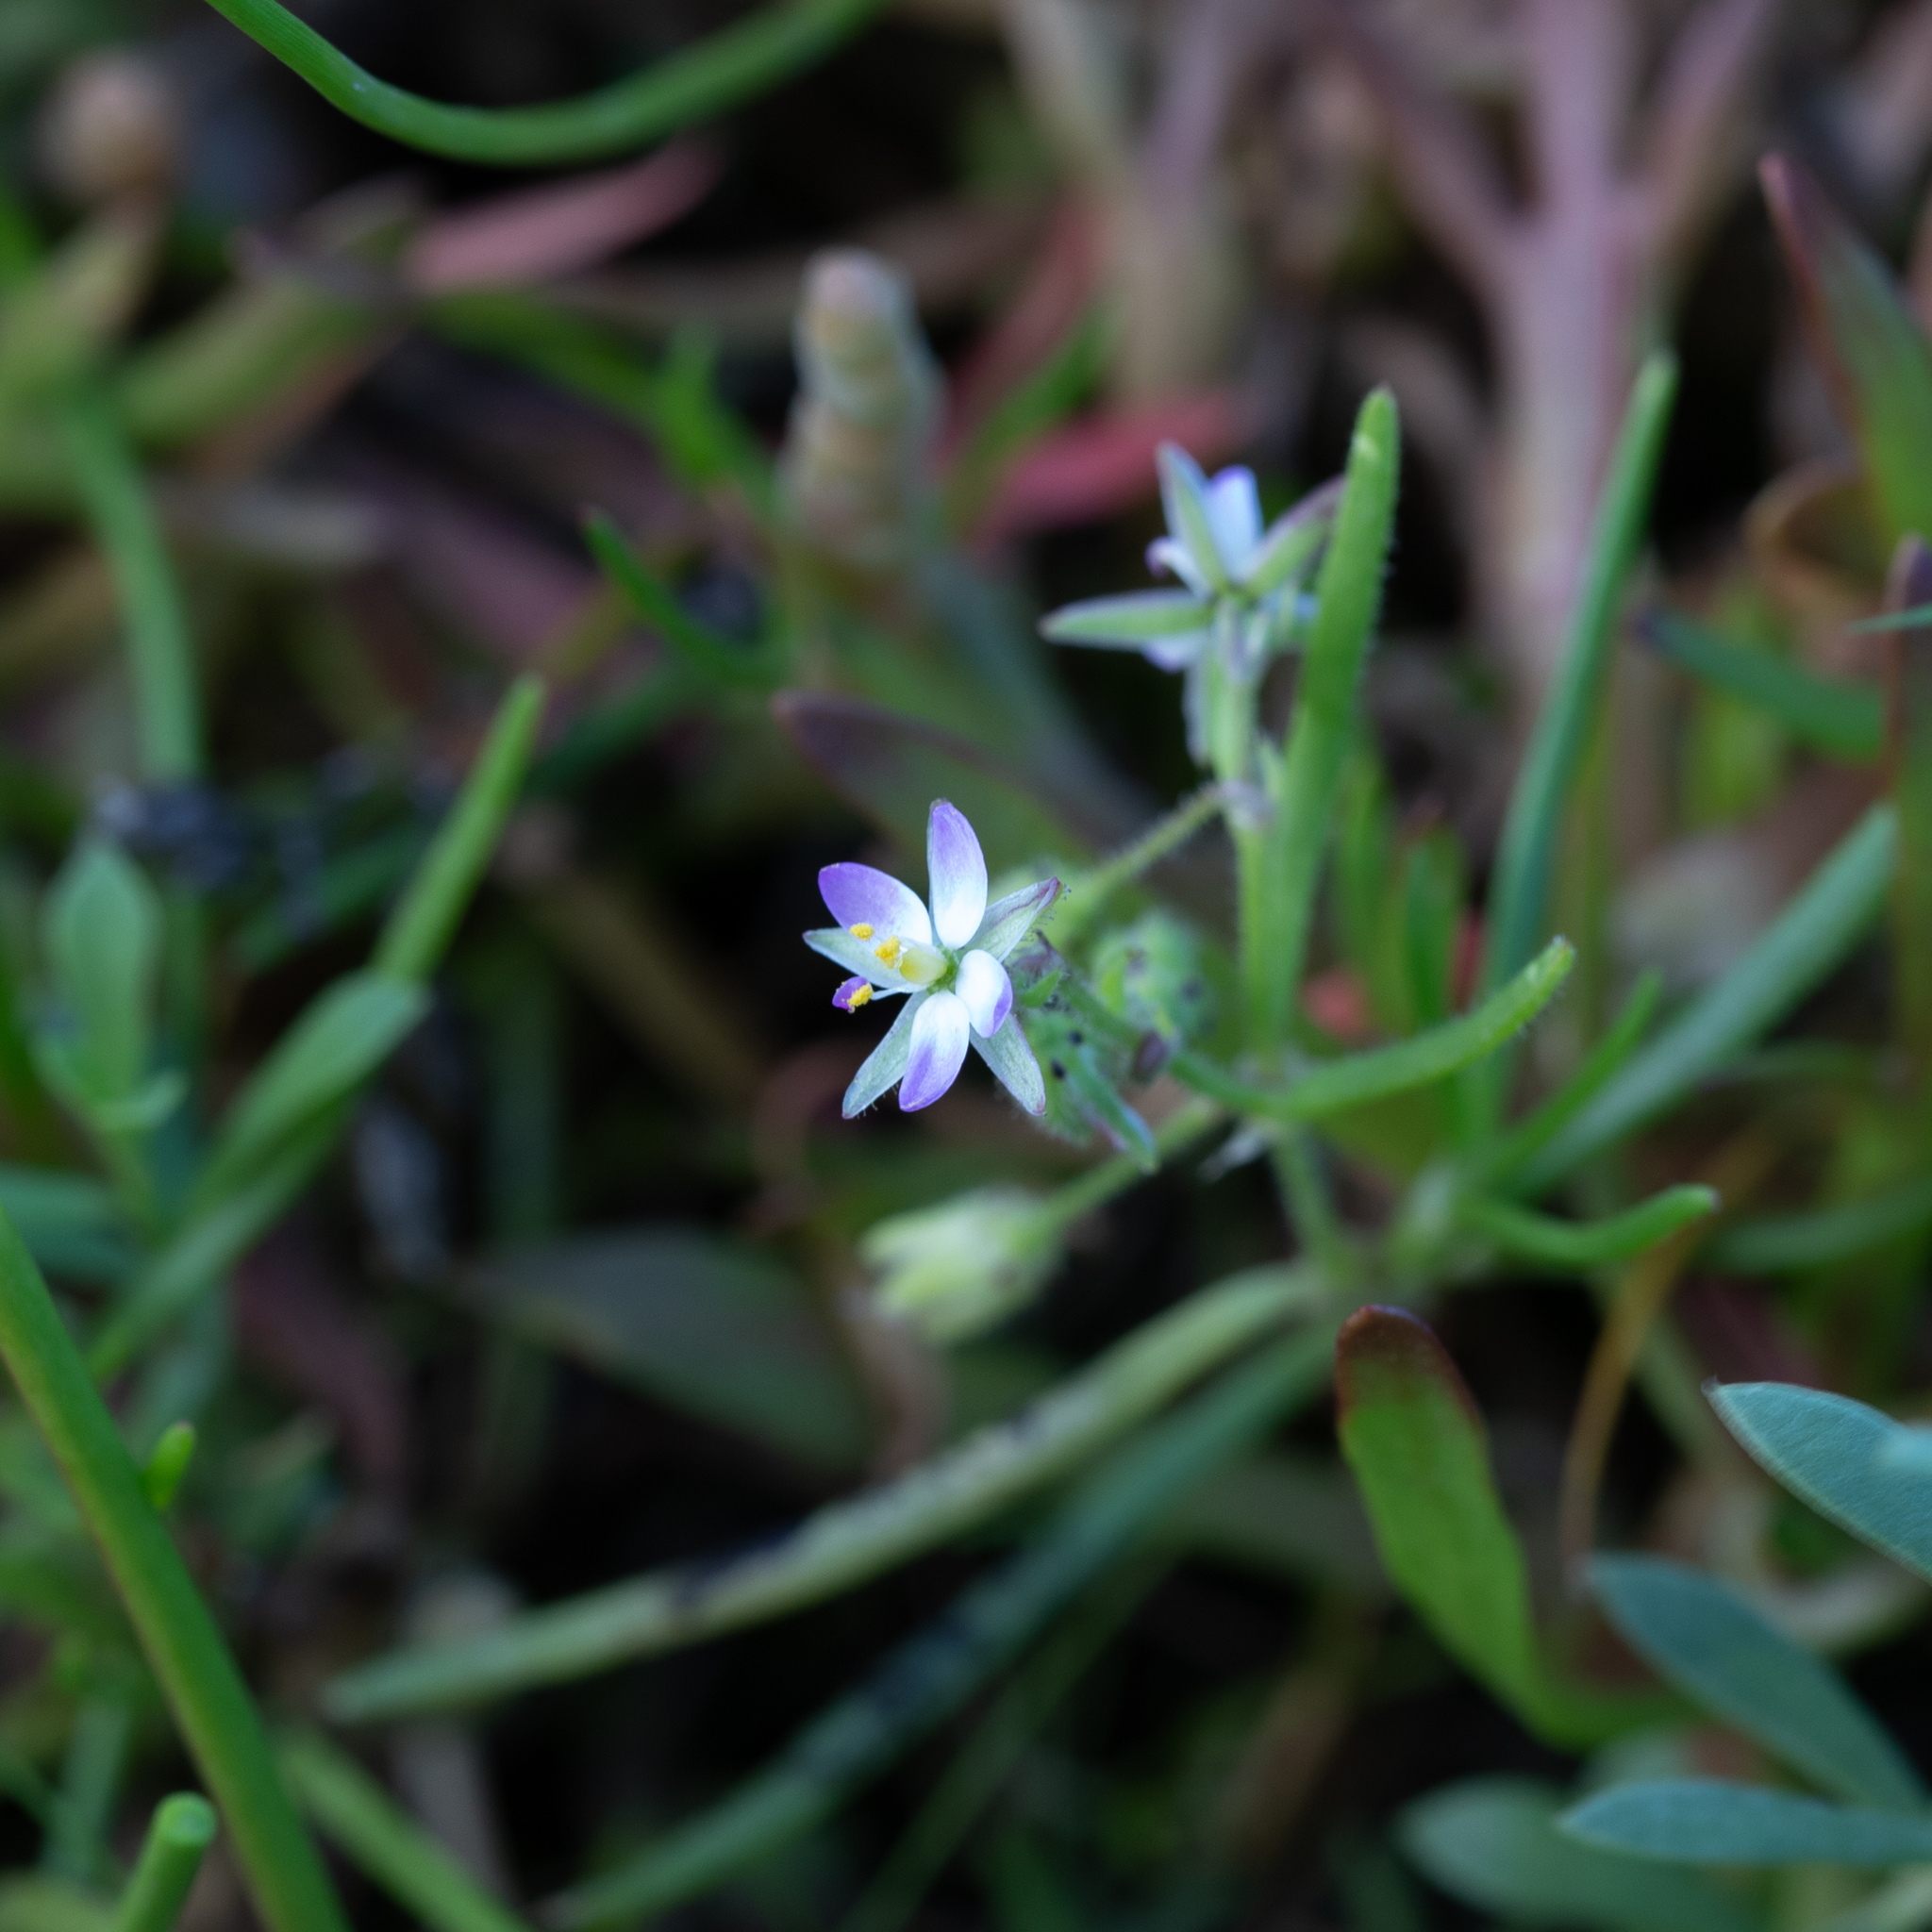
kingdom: Plantae
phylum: Tracheophyta
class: Magnoliopsida
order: Caryophyllales
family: Caryophyllaceae
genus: Spergularia
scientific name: Spergularia marina
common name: Lesser sea-spurrey
